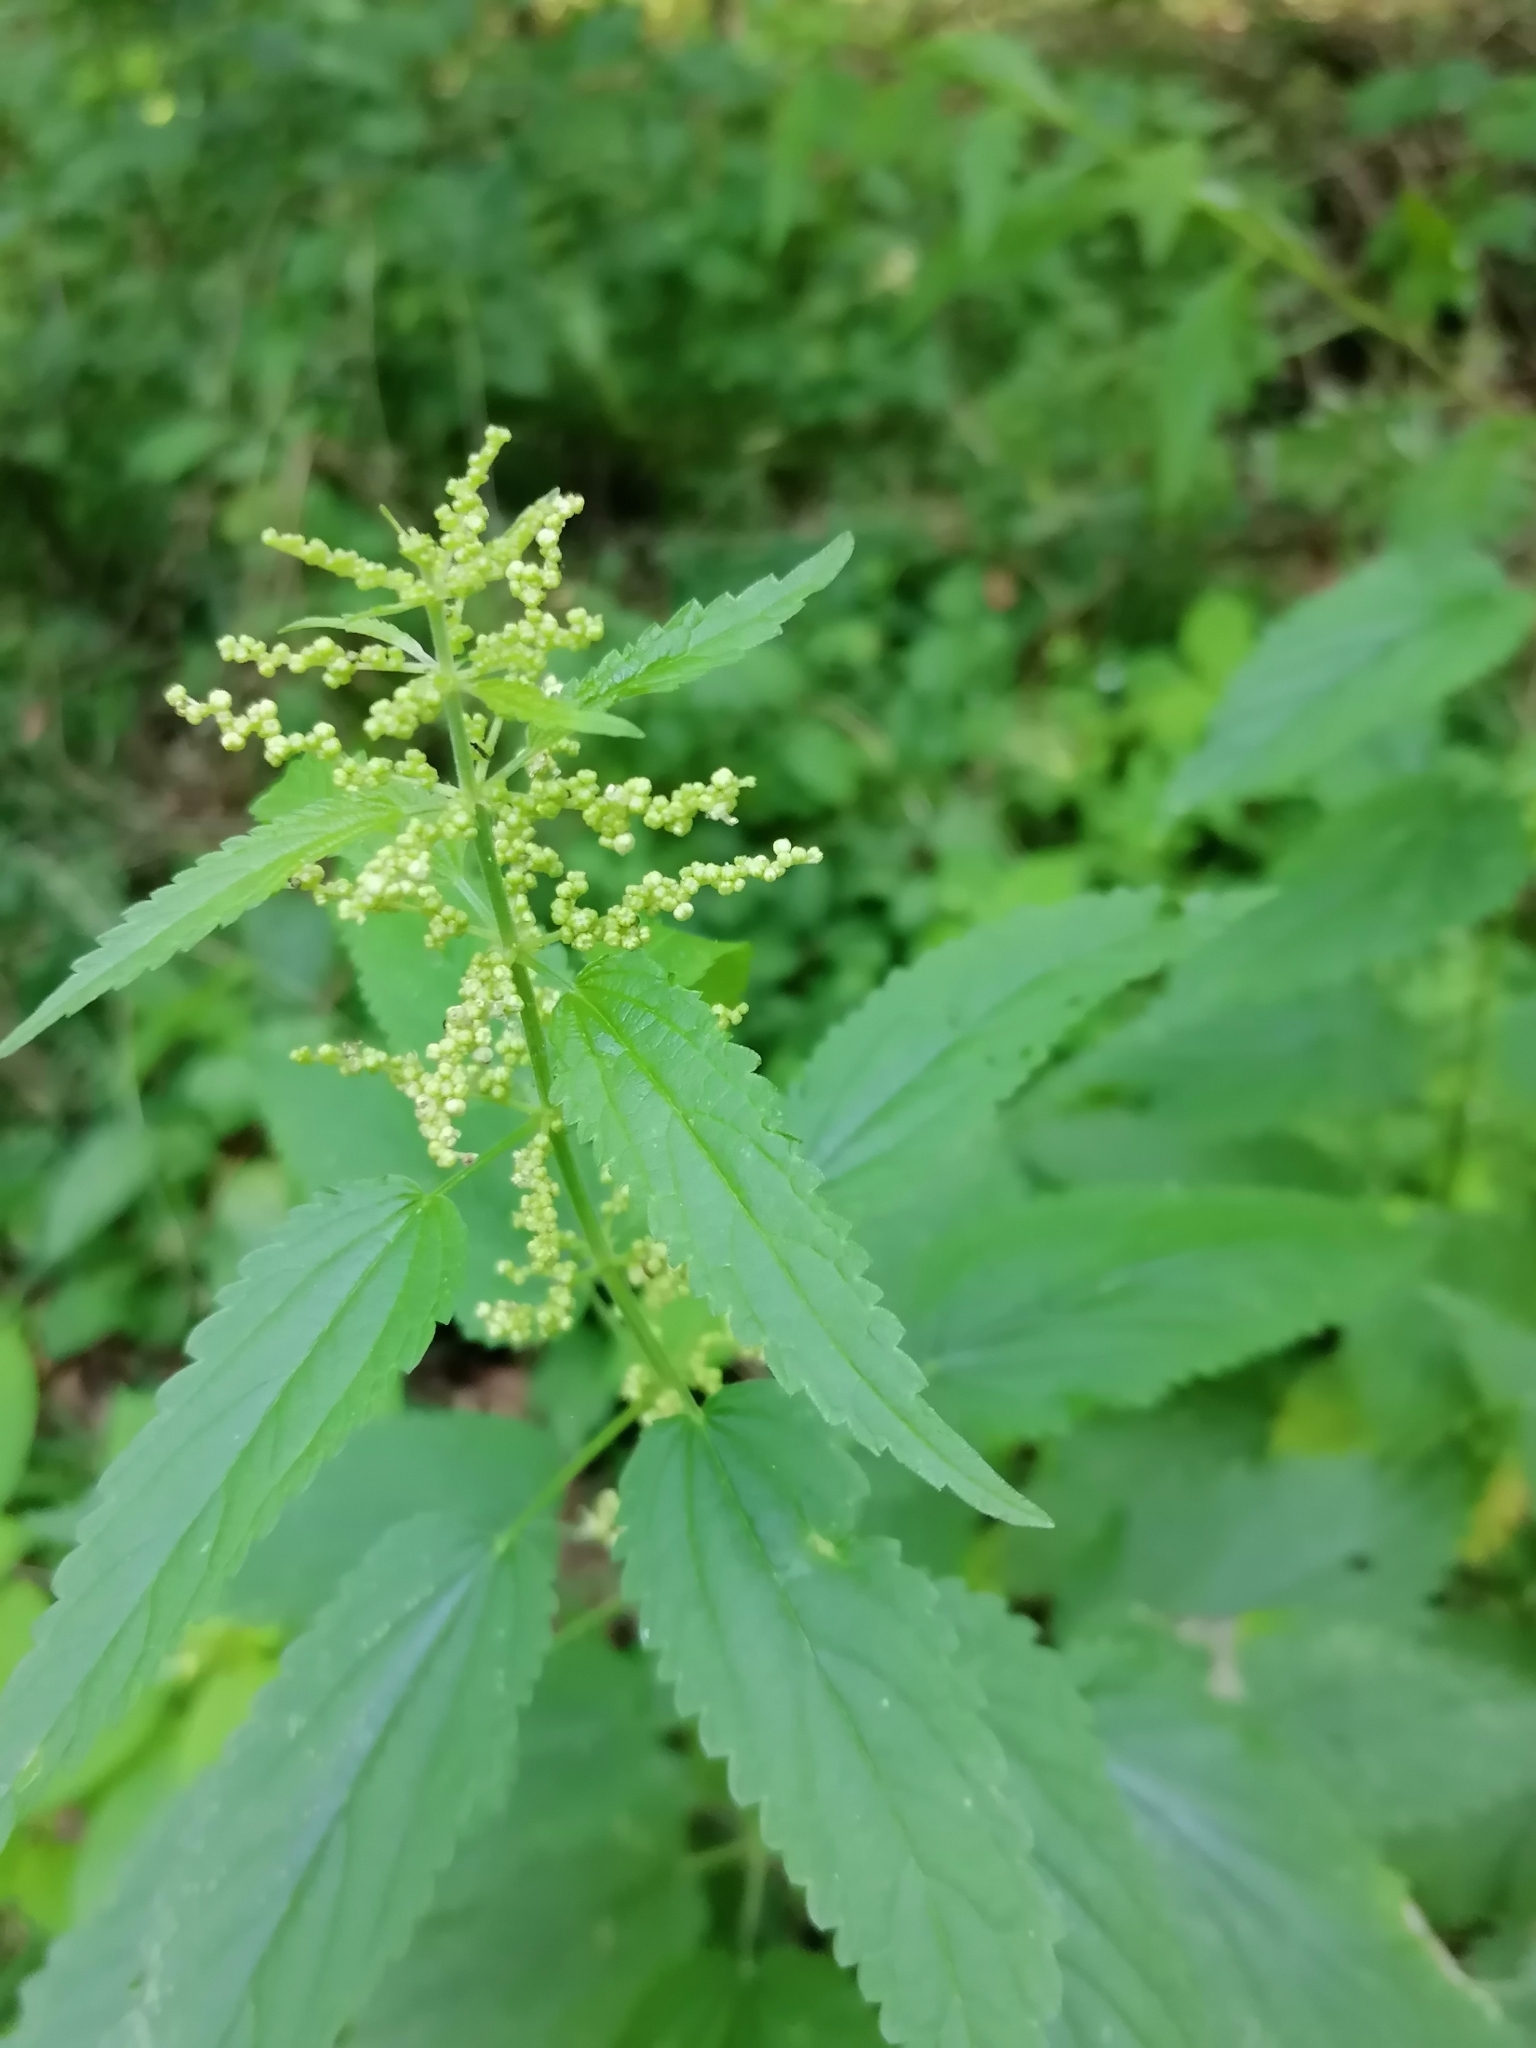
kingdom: Plantae
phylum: Tracheophyta
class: Magnoliopsida
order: Rosales
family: Urticaceae
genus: Urtica
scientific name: Urtica dioica
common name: Common nettle
